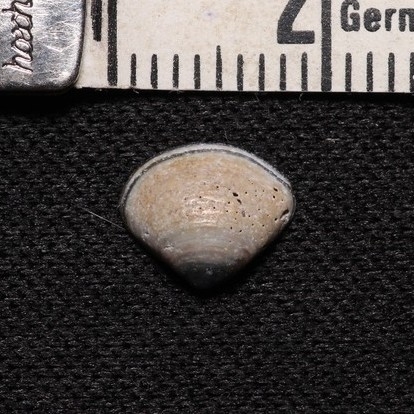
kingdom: Animalia
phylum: Mollusca
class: Bivalvia
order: Venerida
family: Mactridae
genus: Mulinia
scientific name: Mulinia lateralis
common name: Dwarf surfclam
